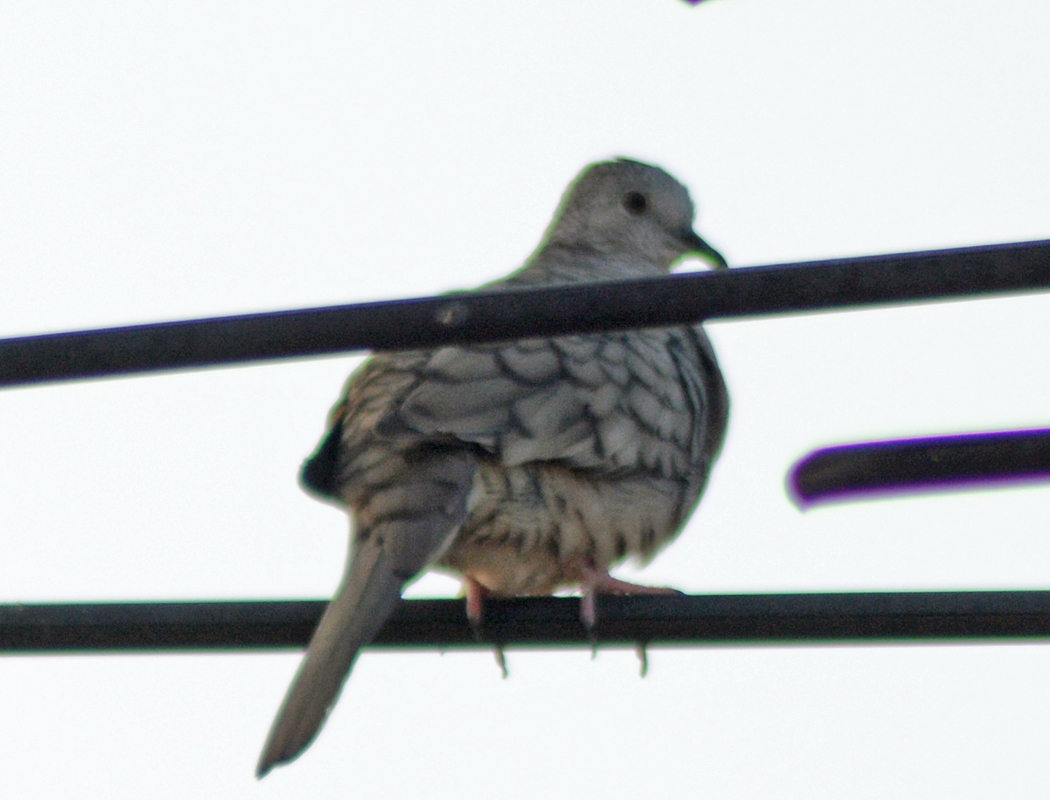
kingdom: Animalia
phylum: Chordata
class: Aves
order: Columbiformes
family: Columbidae
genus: Columbina
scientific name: Columbina inca
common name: Inca dove
